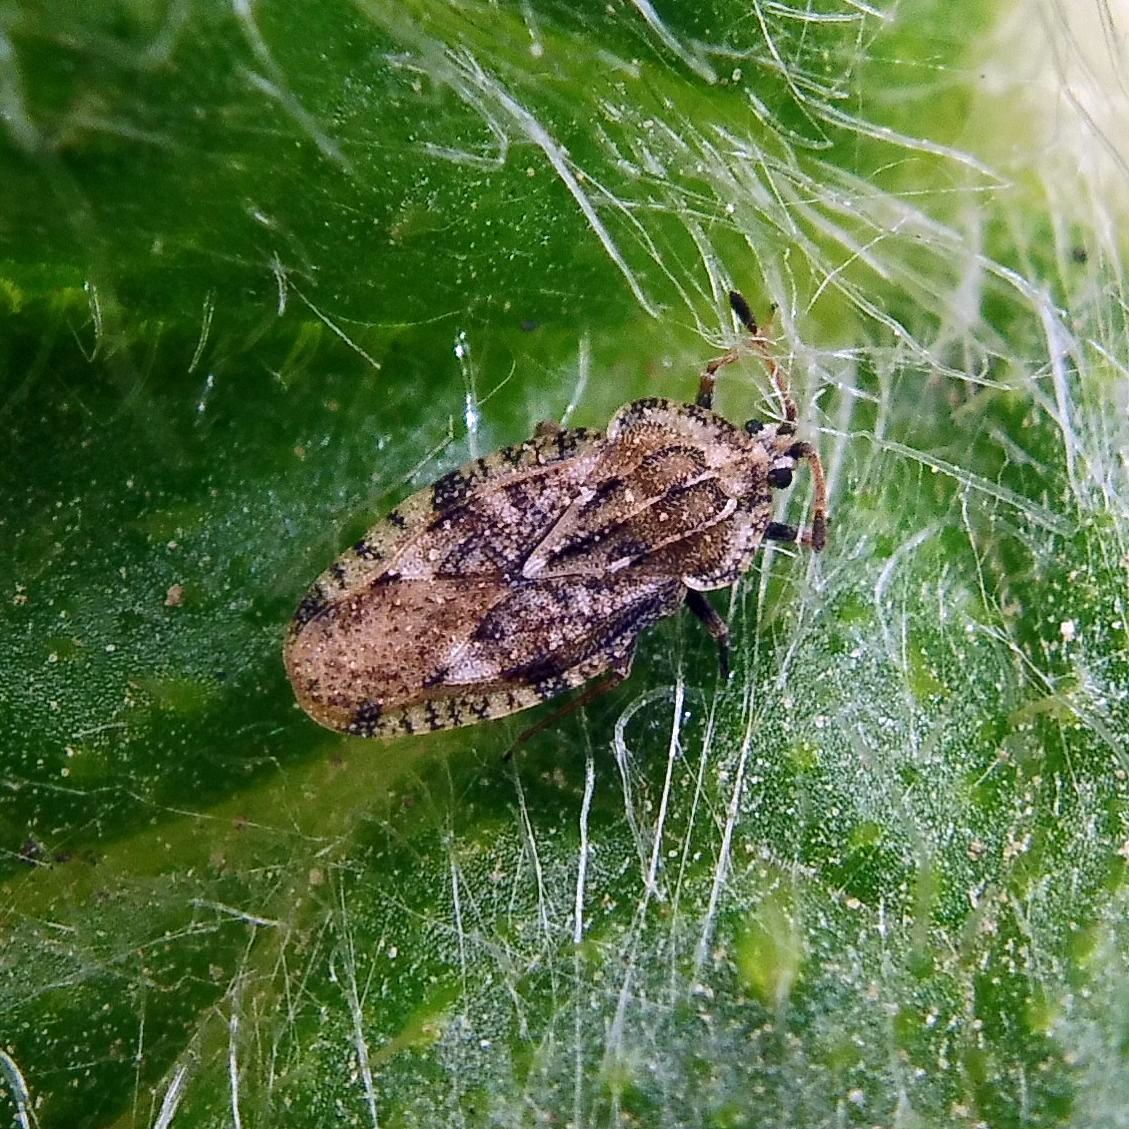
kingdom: Animalia
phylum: Arthropoda
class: Insecta
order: Hemiptera
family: Tingidae
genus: Tingis
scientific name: Tingis cardui
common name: Spear thistle lacebug
